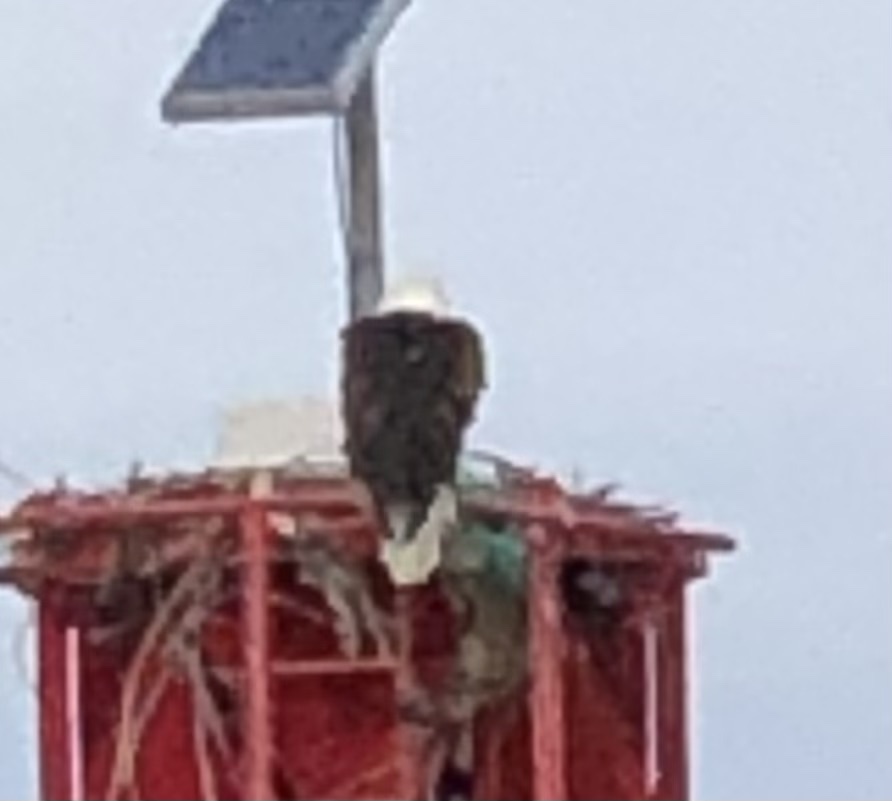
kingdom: Animalia
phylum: Chordata
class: Aves
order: Accipitriformes
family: Accipitridae
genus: Haliaeetus
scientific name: Haliaeetus leucocephalus
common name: Bald eagle
